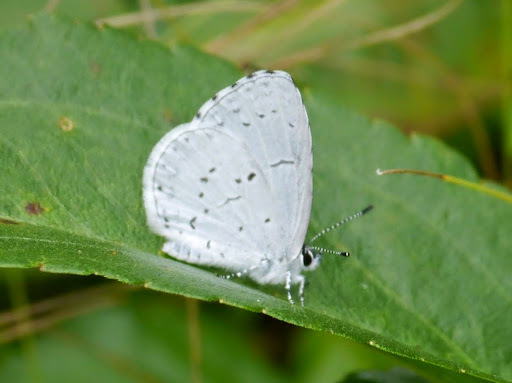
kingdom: Animalia
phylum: Arthropoda
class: Insecta
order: Lepidoptera
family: Lycaenidae
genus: Cyaniris
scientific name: Cyaniris neglecta
